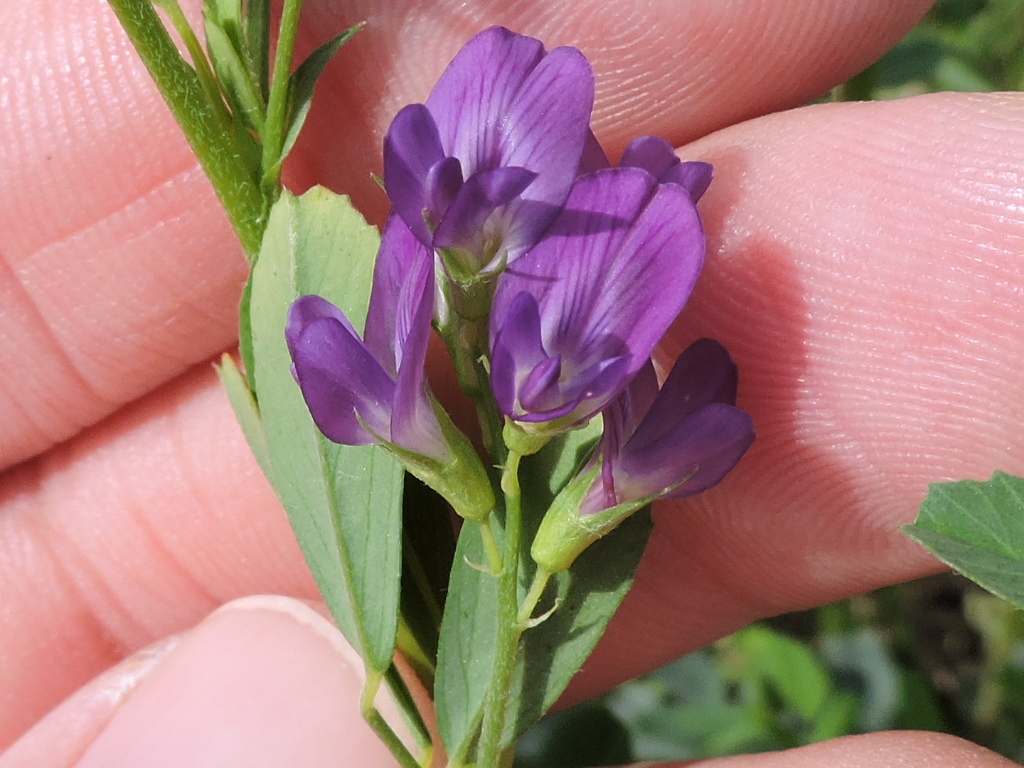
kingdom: Plantae
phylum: Tracheophyta
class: Magnoliopsida
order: Fabales
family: Fabaceae
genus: Medicago
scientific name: Medicago sativa
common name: Alfalfa
